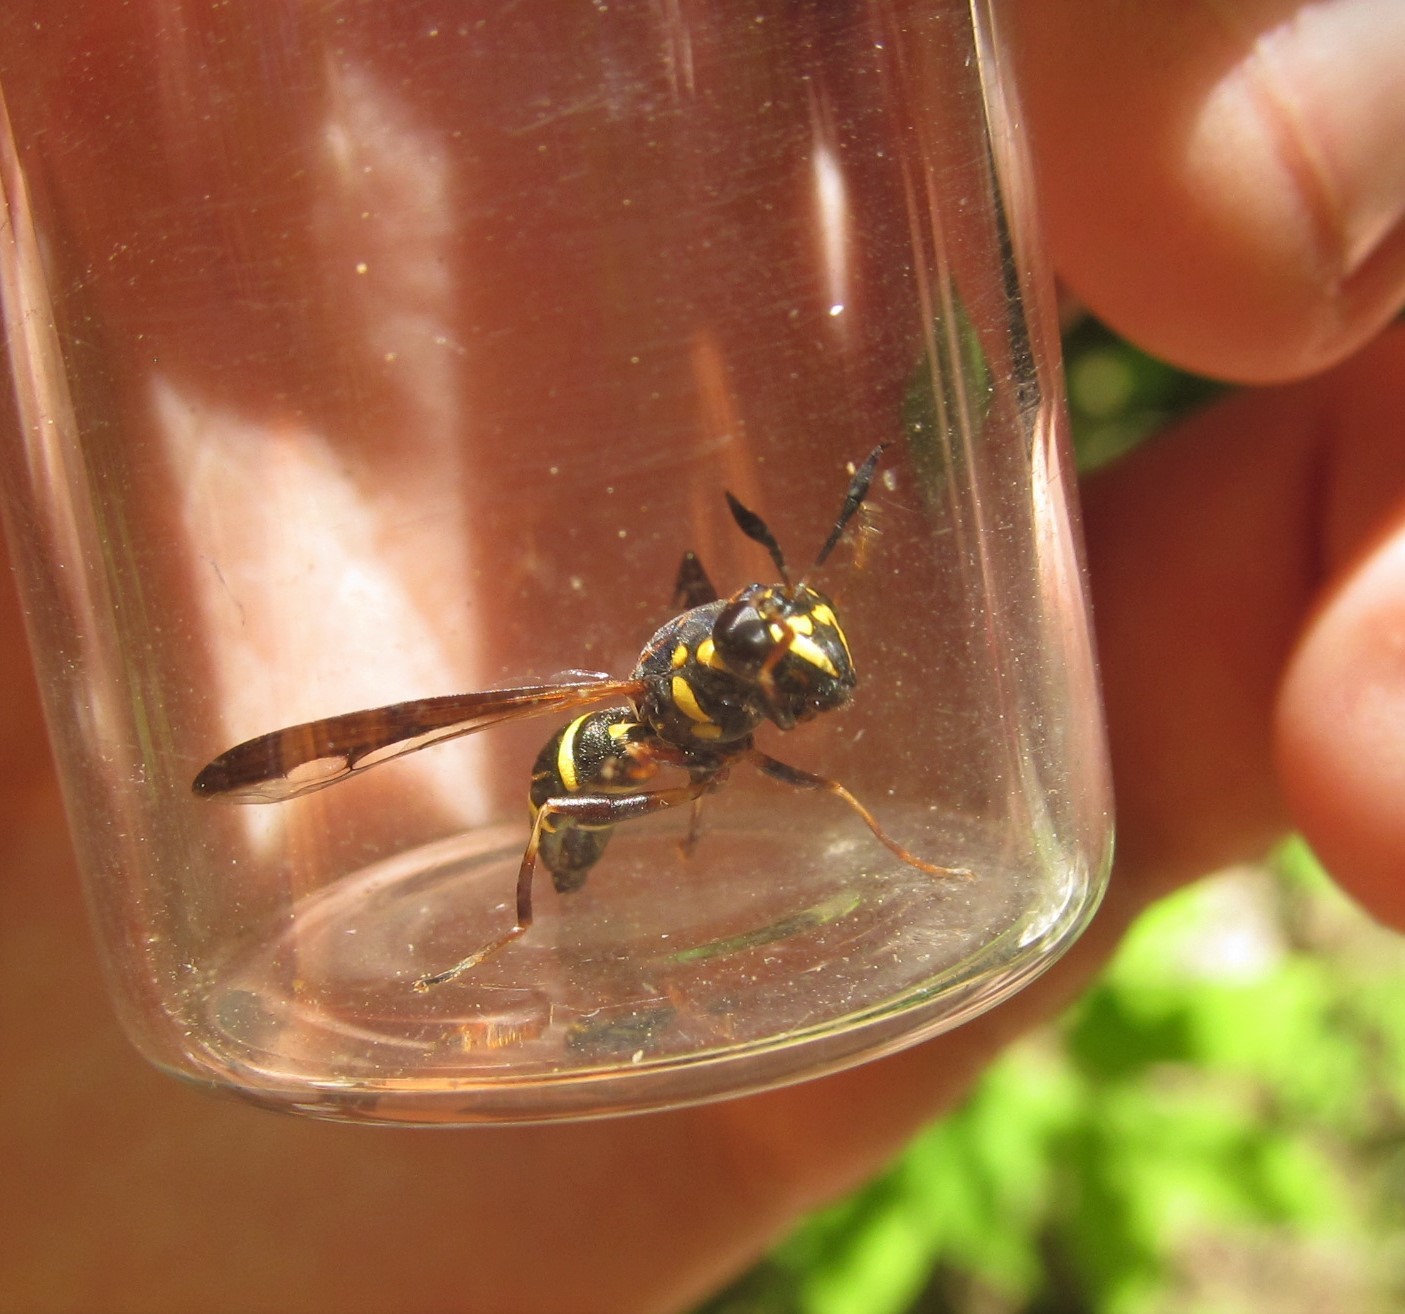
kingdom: Animalia
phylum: Arthropoda
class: Insecta
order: Diptera
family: Syrphidae
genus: Sphiximorpha
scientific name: Sphiximorpha willistoni
